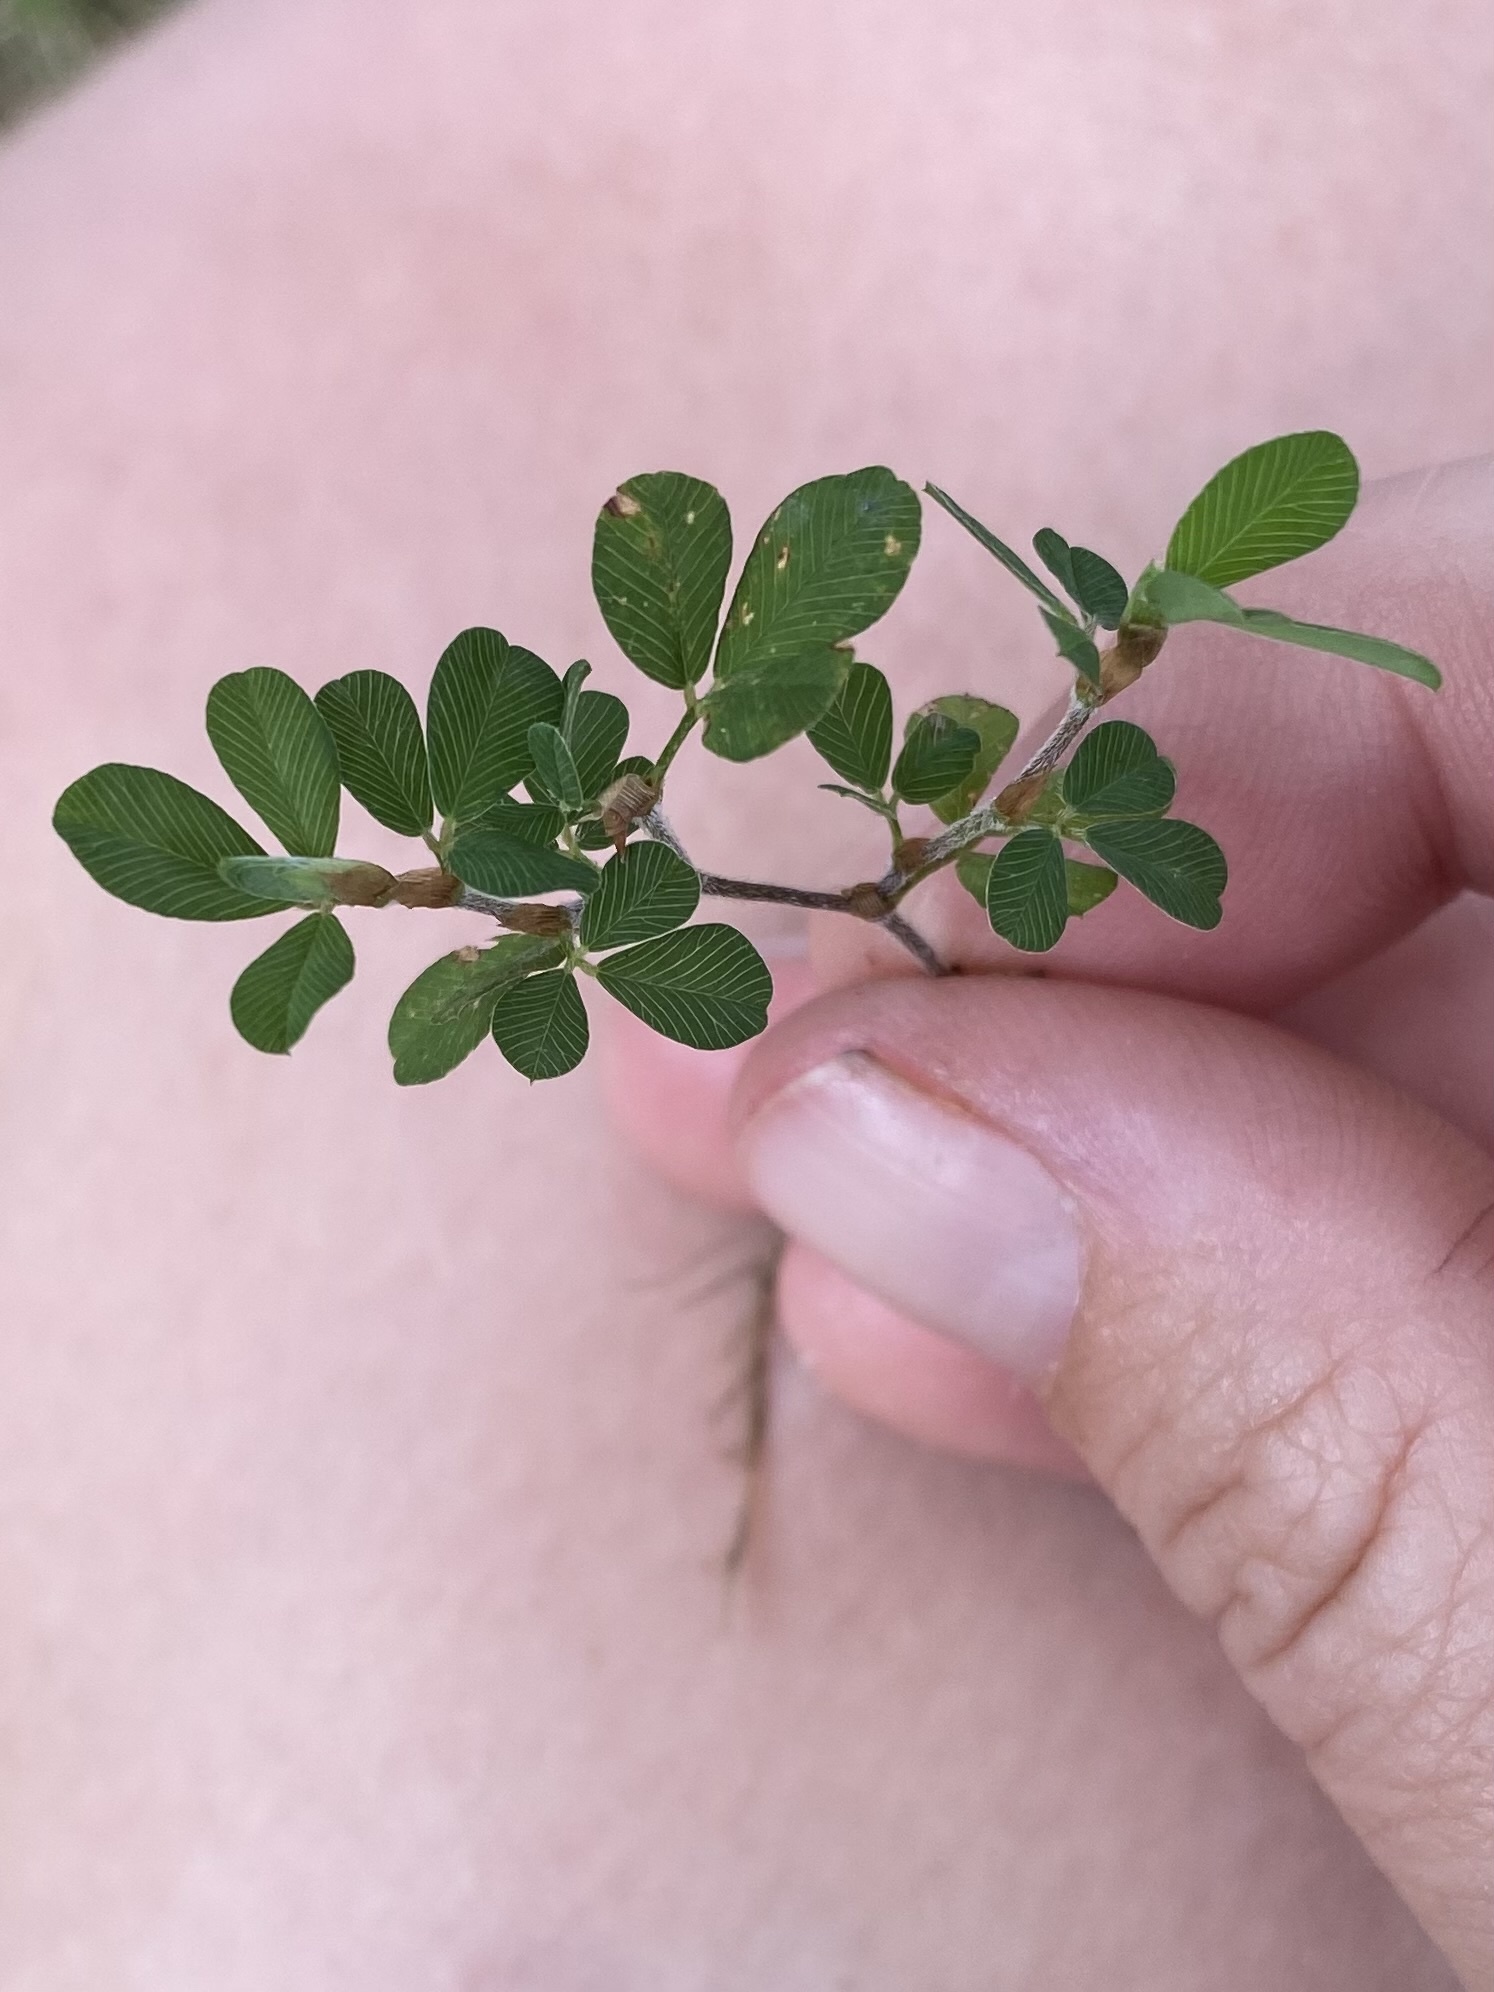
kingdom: Plantae
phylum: Tracheophyta
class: Magnoliopsida
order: Fabales
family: Fabaceae
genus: Kummerowia
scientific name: Kummerowia striata
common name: Japanese clover
